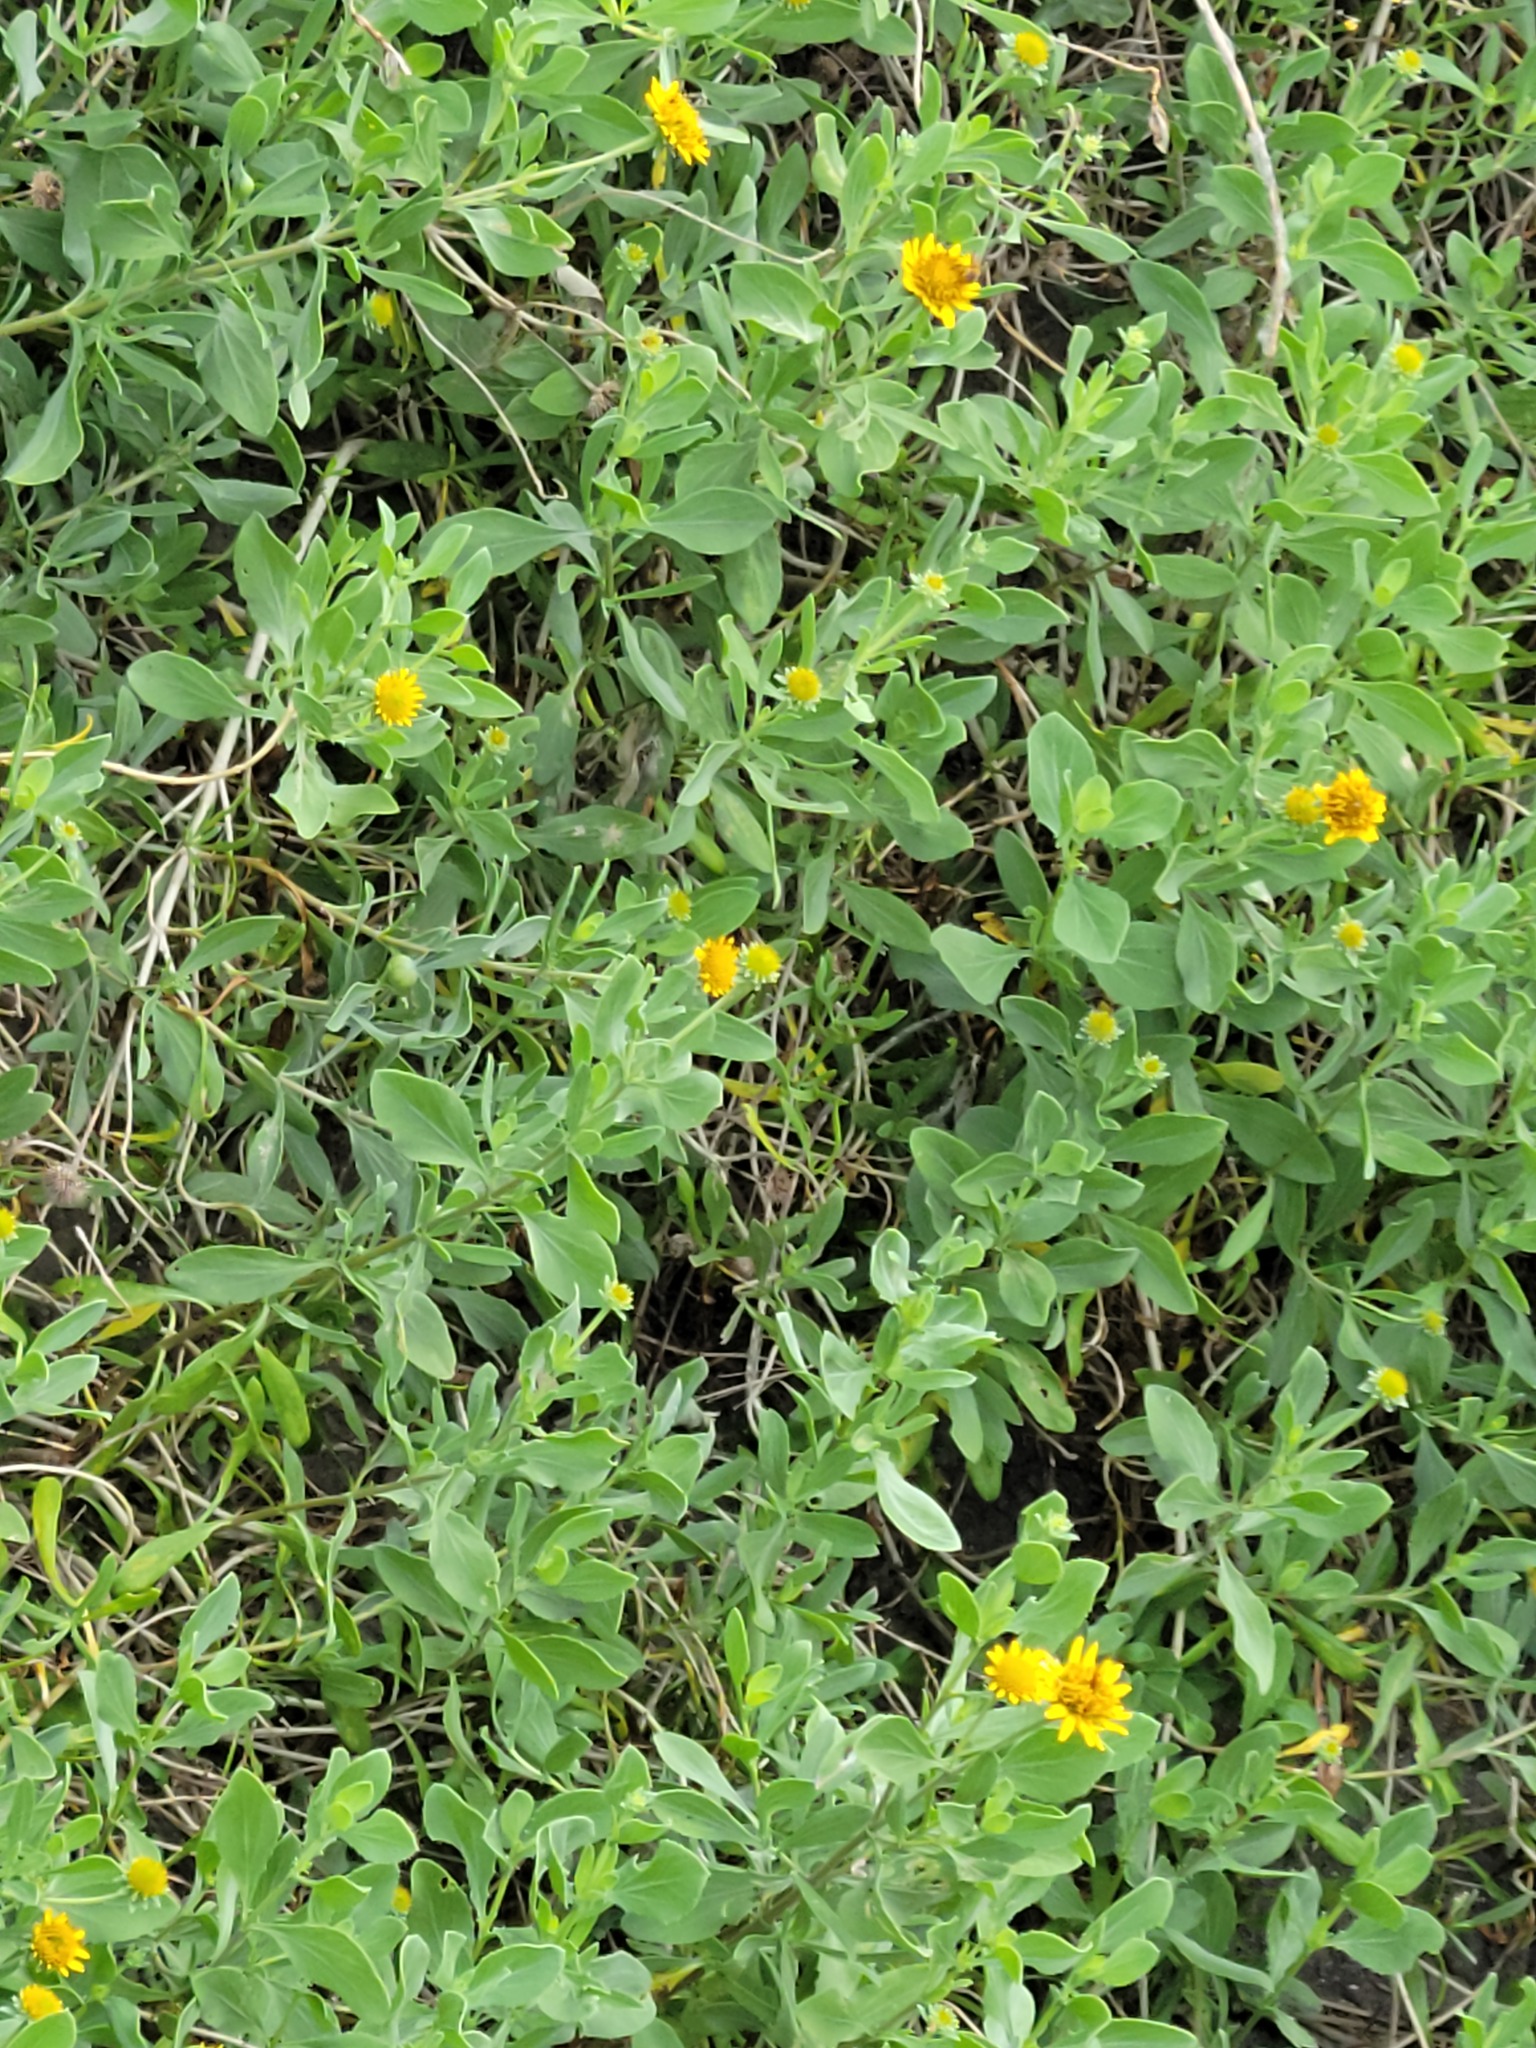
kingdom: Plantae
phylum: Tracheophyta
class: Magnoliopsida
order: Asterales
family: Asteraceae
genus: Borrichia
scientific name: Borrichia frutescens
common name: Sea oxeye
